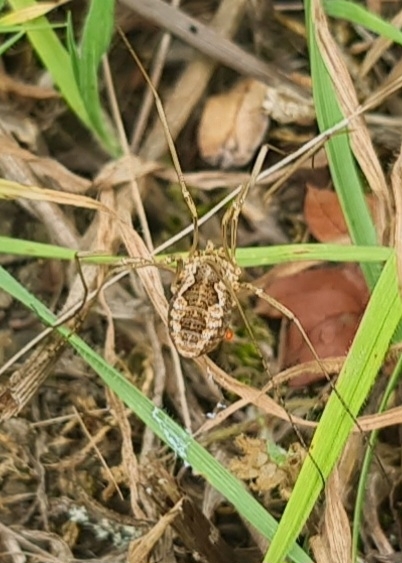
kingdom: Animalia
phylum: Arthropoda
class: Arachnida
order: Opiliones
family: Phalangiidae
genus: Phalangium
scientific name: Phalangium opilio
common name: Daddy longleg
